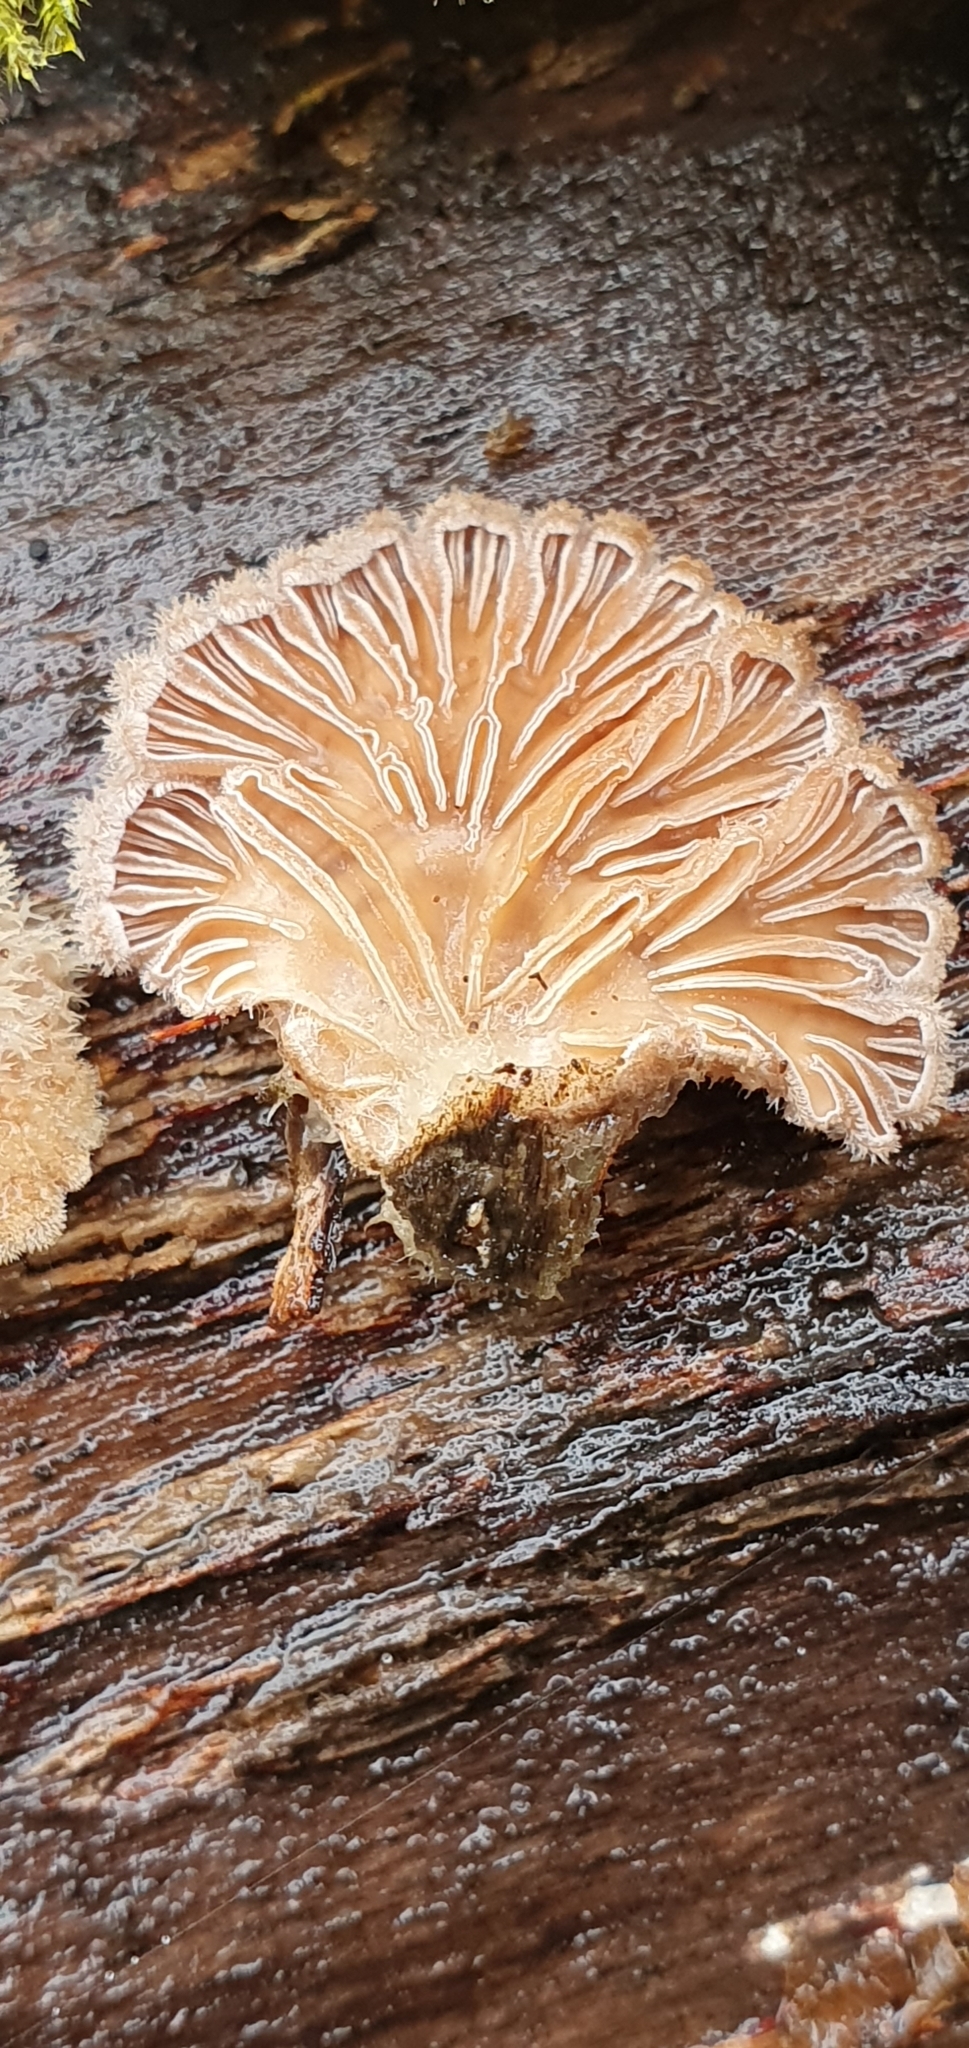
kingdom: Fungi
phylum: Basidiomycota
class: Agaricomycetes
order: Agaricales
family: Schizophyllaceae
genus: Schizophyllum
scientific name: Schizophyllum commune
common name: Common porecrust
